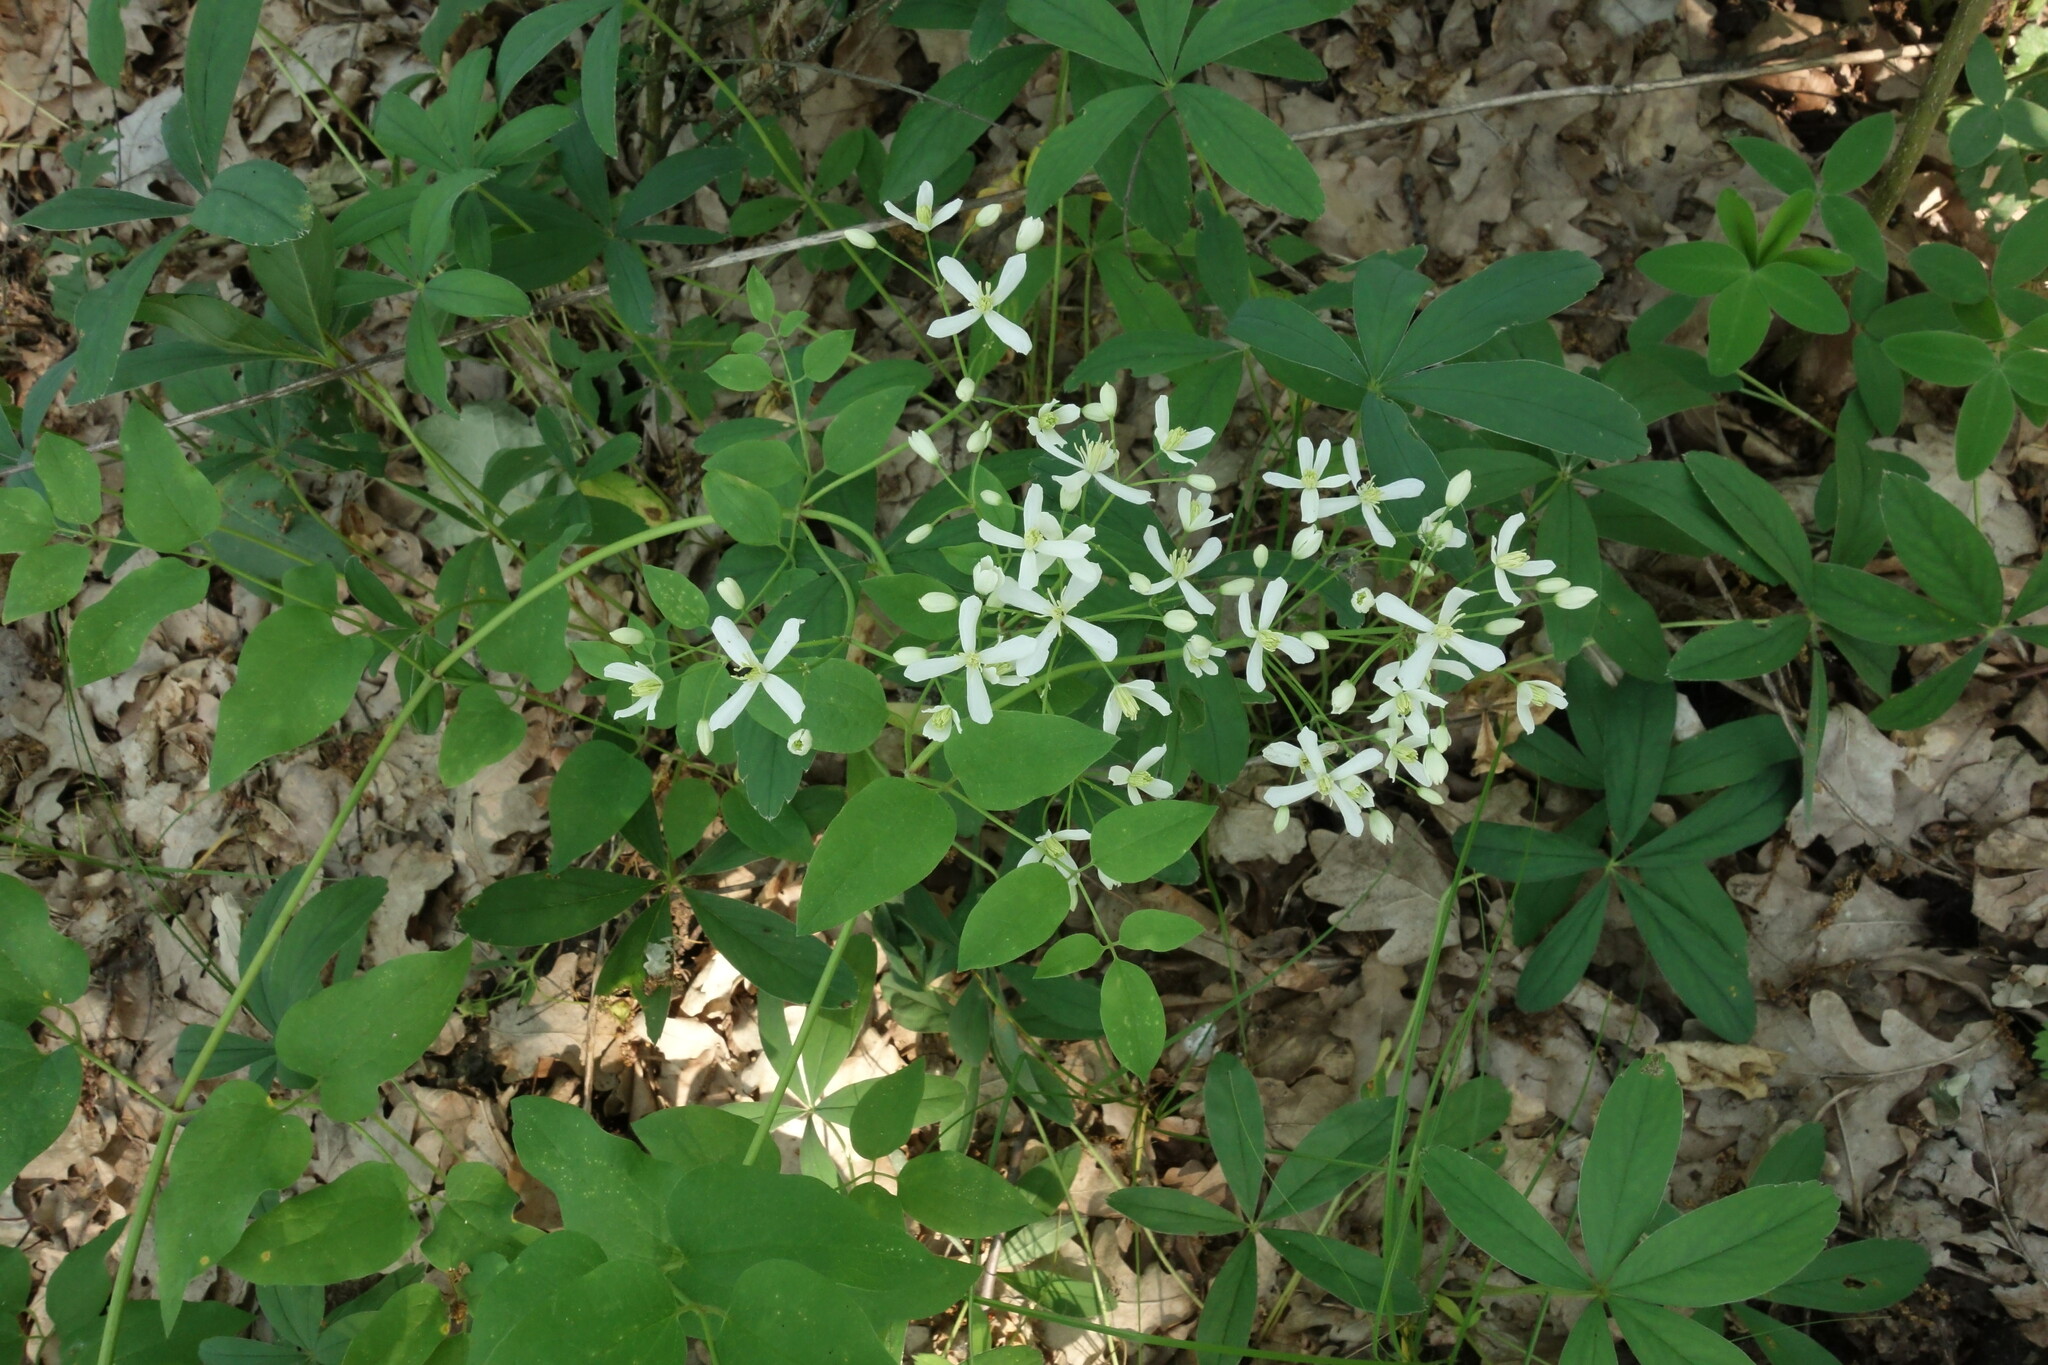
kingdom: Plantae
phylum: Tracheophyta
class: Magnoliopsida
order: Ranunculales
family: Ranunculaceae
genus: Clematis
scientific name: Clematis recta
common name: Ground clematis
